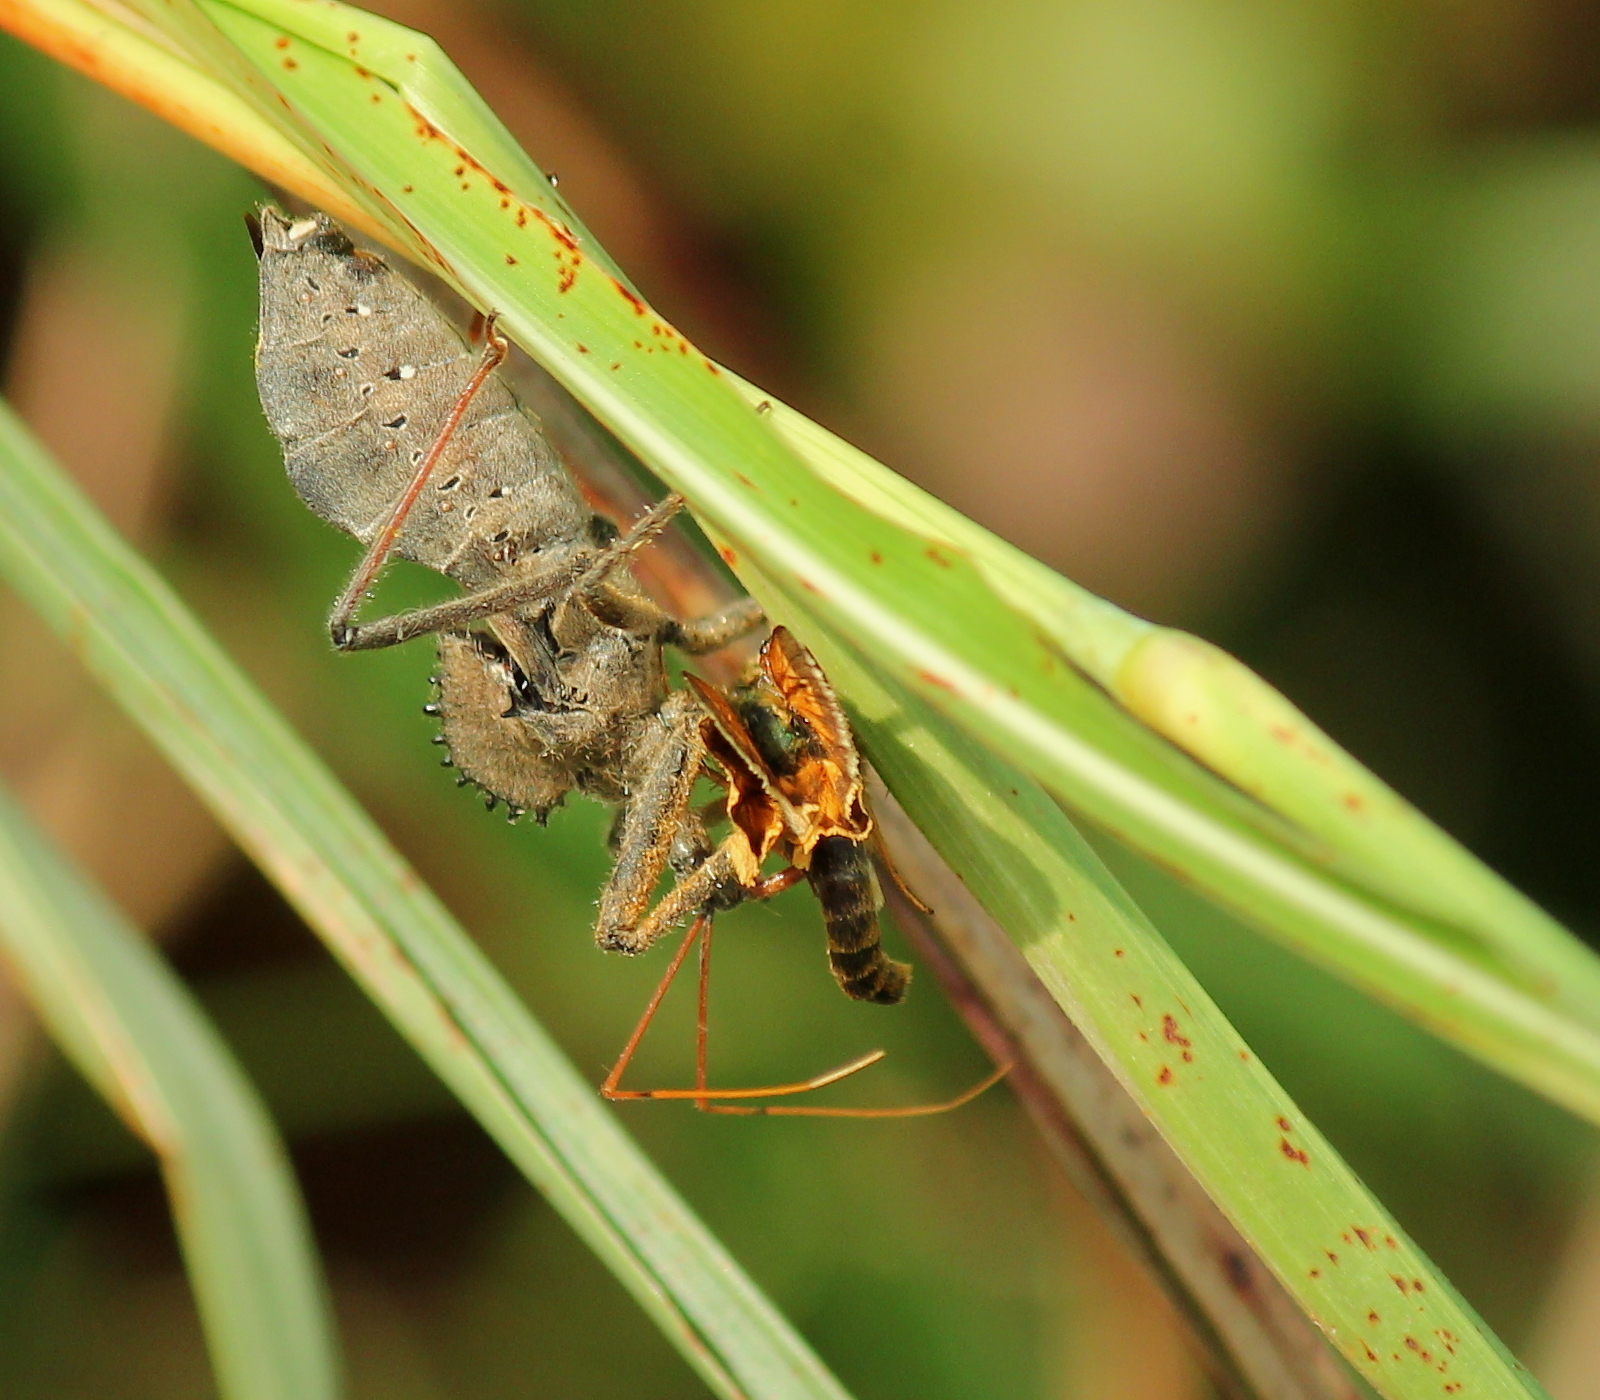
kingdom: Animalia
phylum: Arthropoda
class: Insecta
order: Hemiptera
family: Reduviidae
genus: Arilus
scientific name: Arilus cristatus
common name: North american wheel bug
